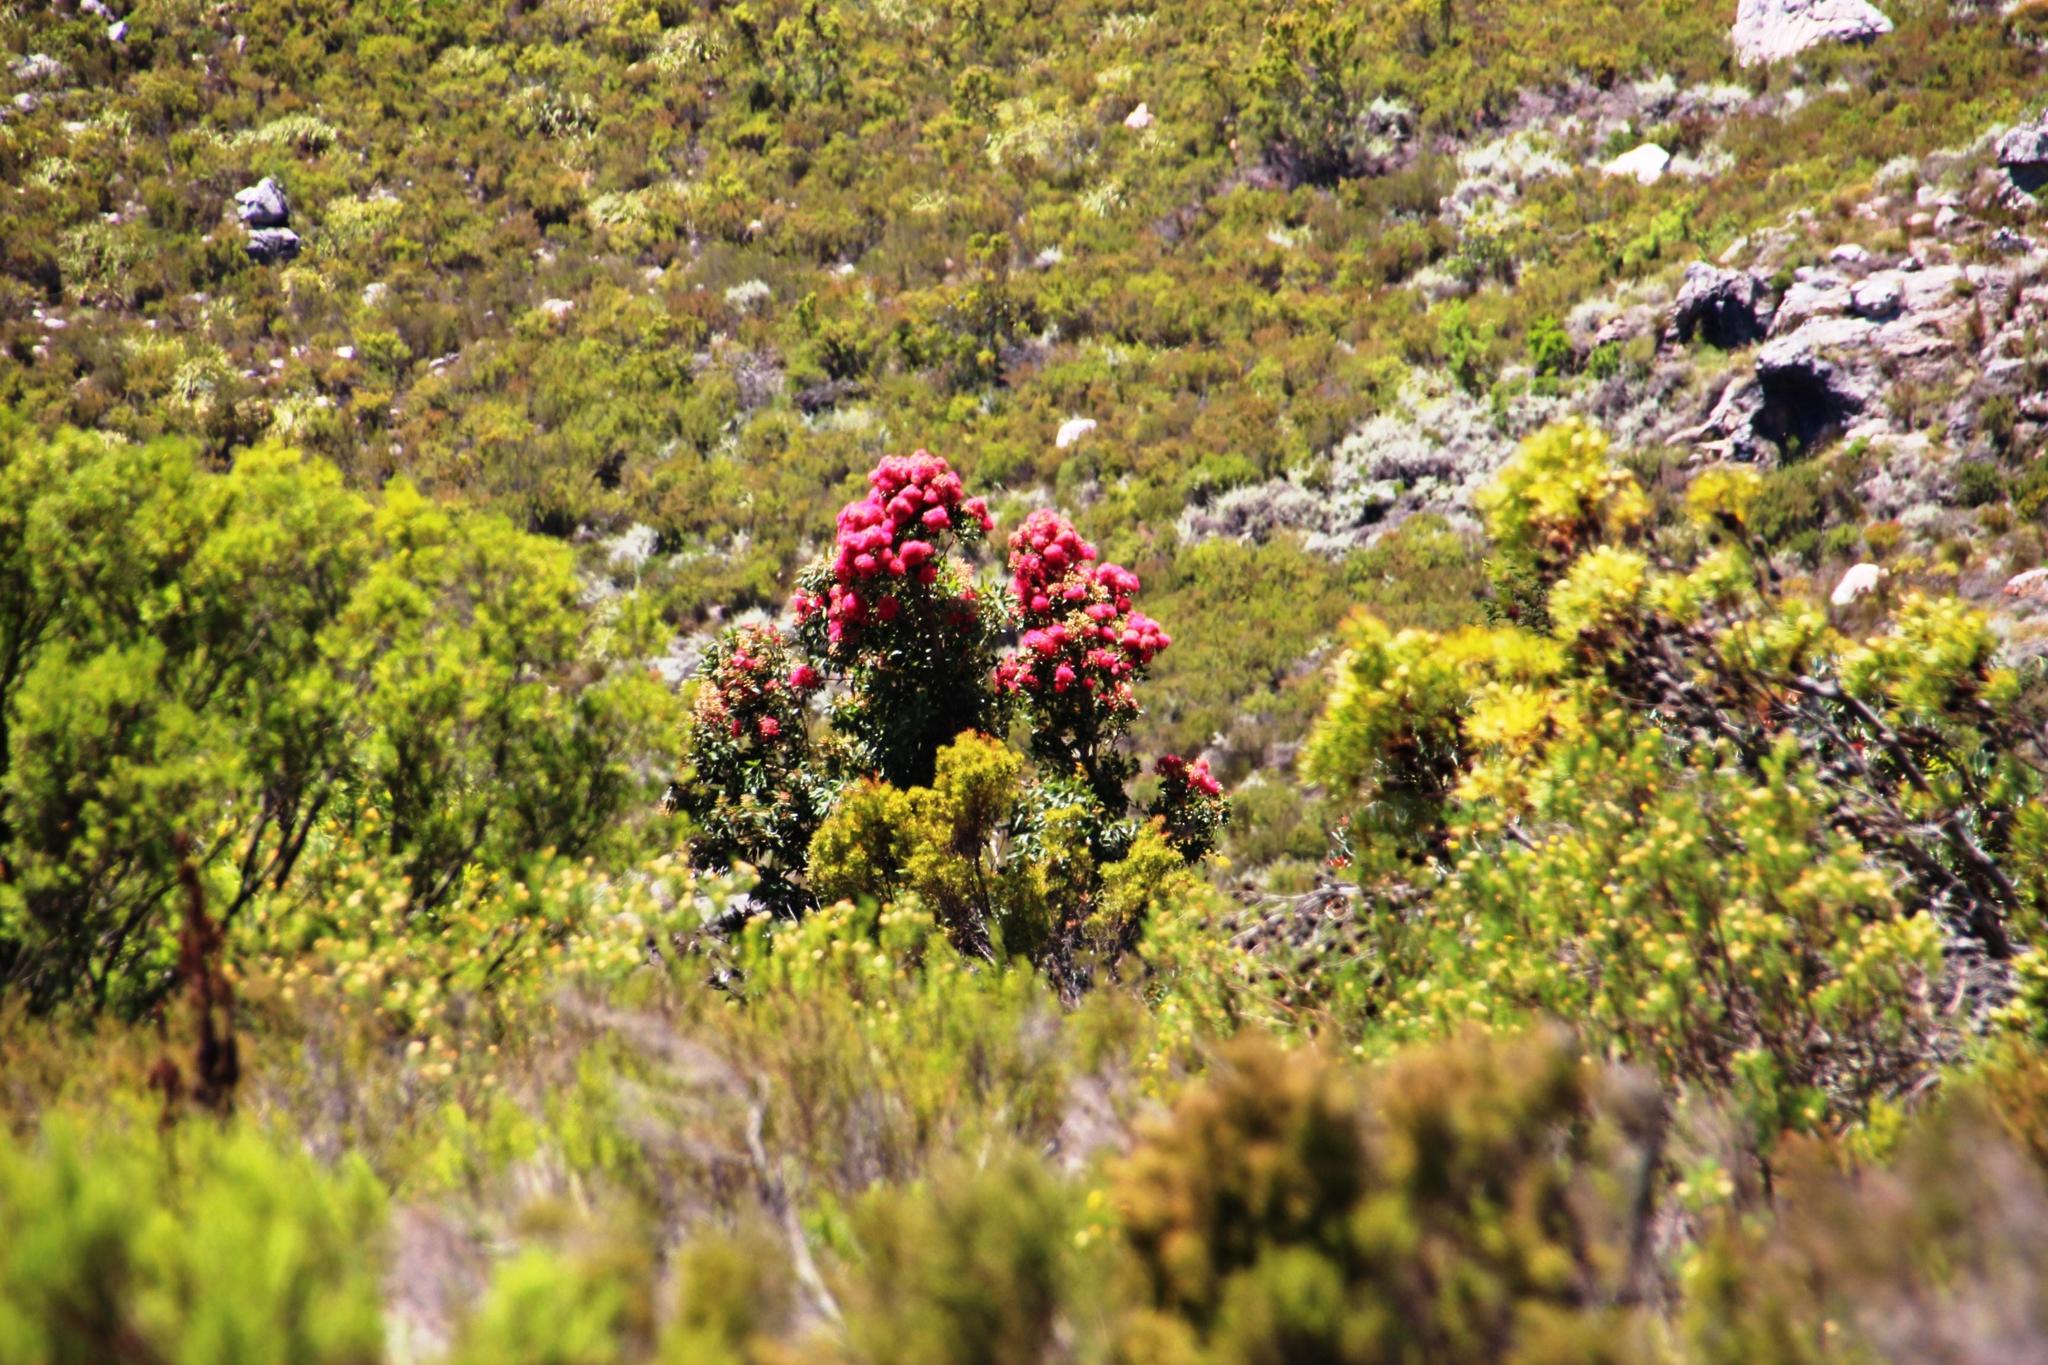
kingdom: Plantae
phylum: Tracheophyta
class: Magnoliopsida
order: Myrtales
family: Myrtaceae
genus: Corymbia
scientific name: Corymbia ficifolia
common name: Redflower gum
